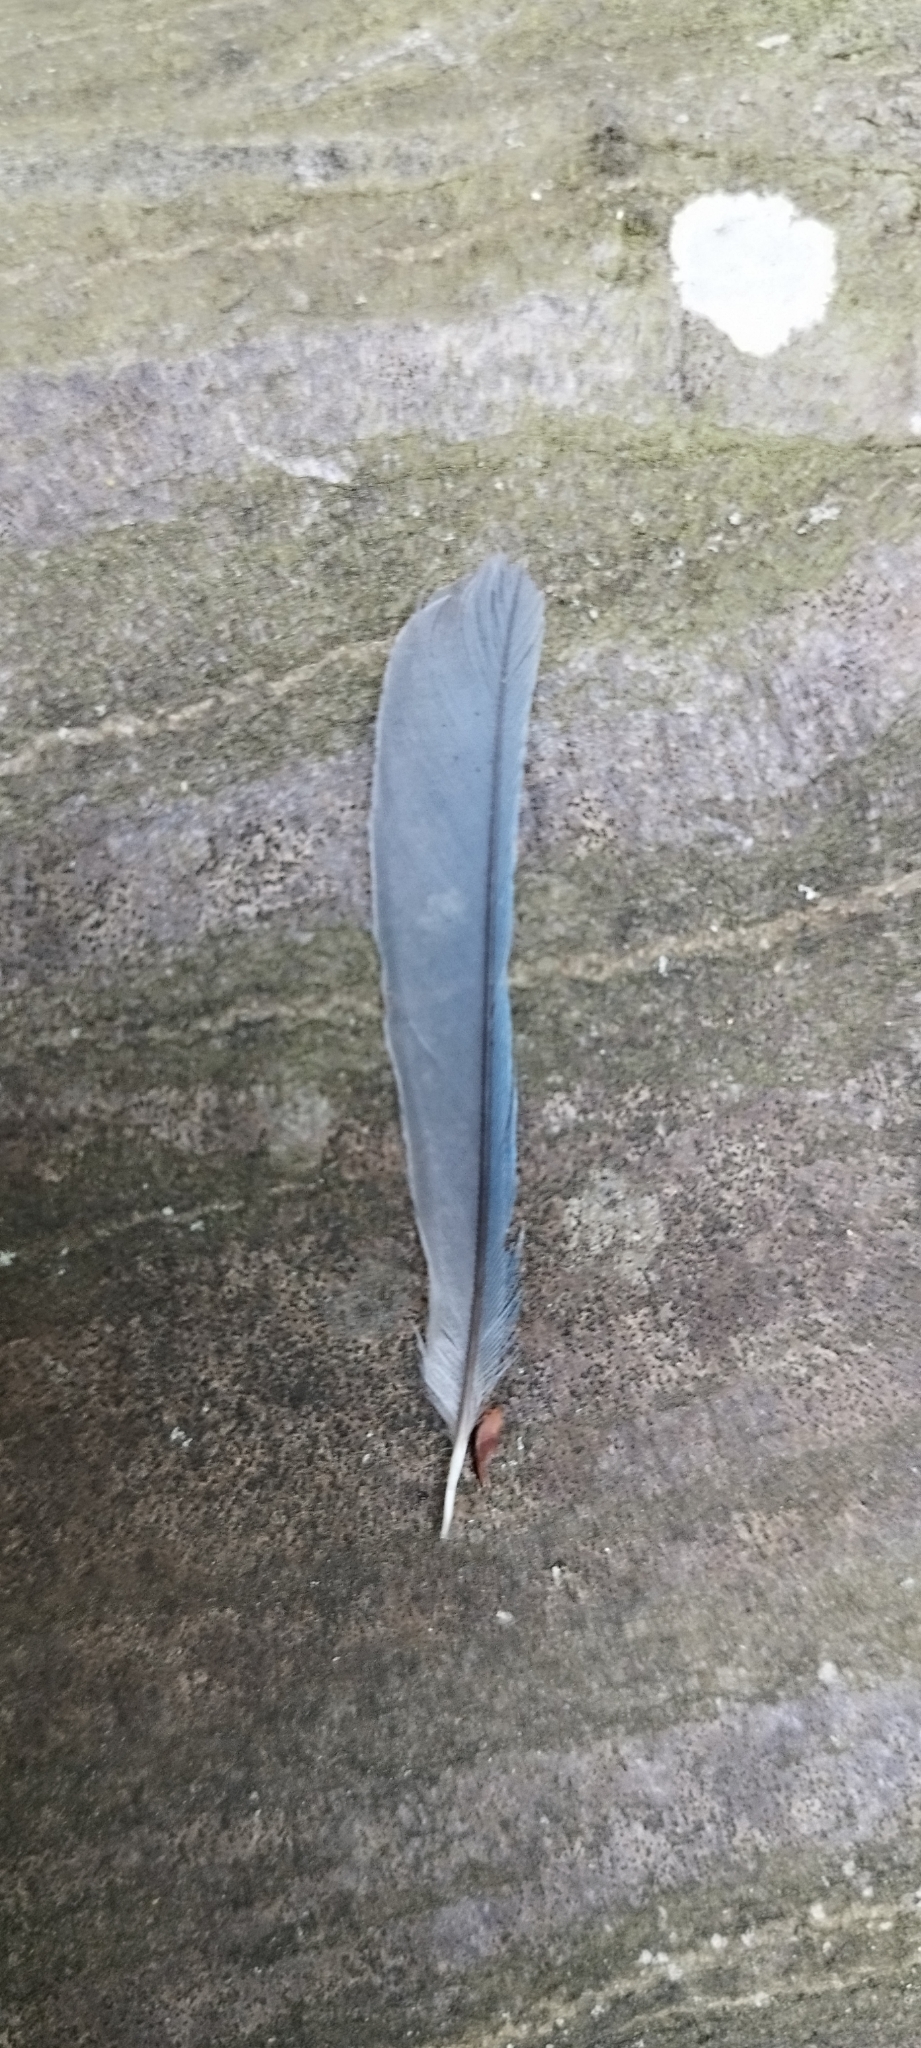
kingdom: Animalia
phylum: Chordata
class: Aves
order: Passeriformes
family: Paridae
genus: Cyanistes
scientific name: Cyanistes caeruleus
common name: Eurasian blue tit
